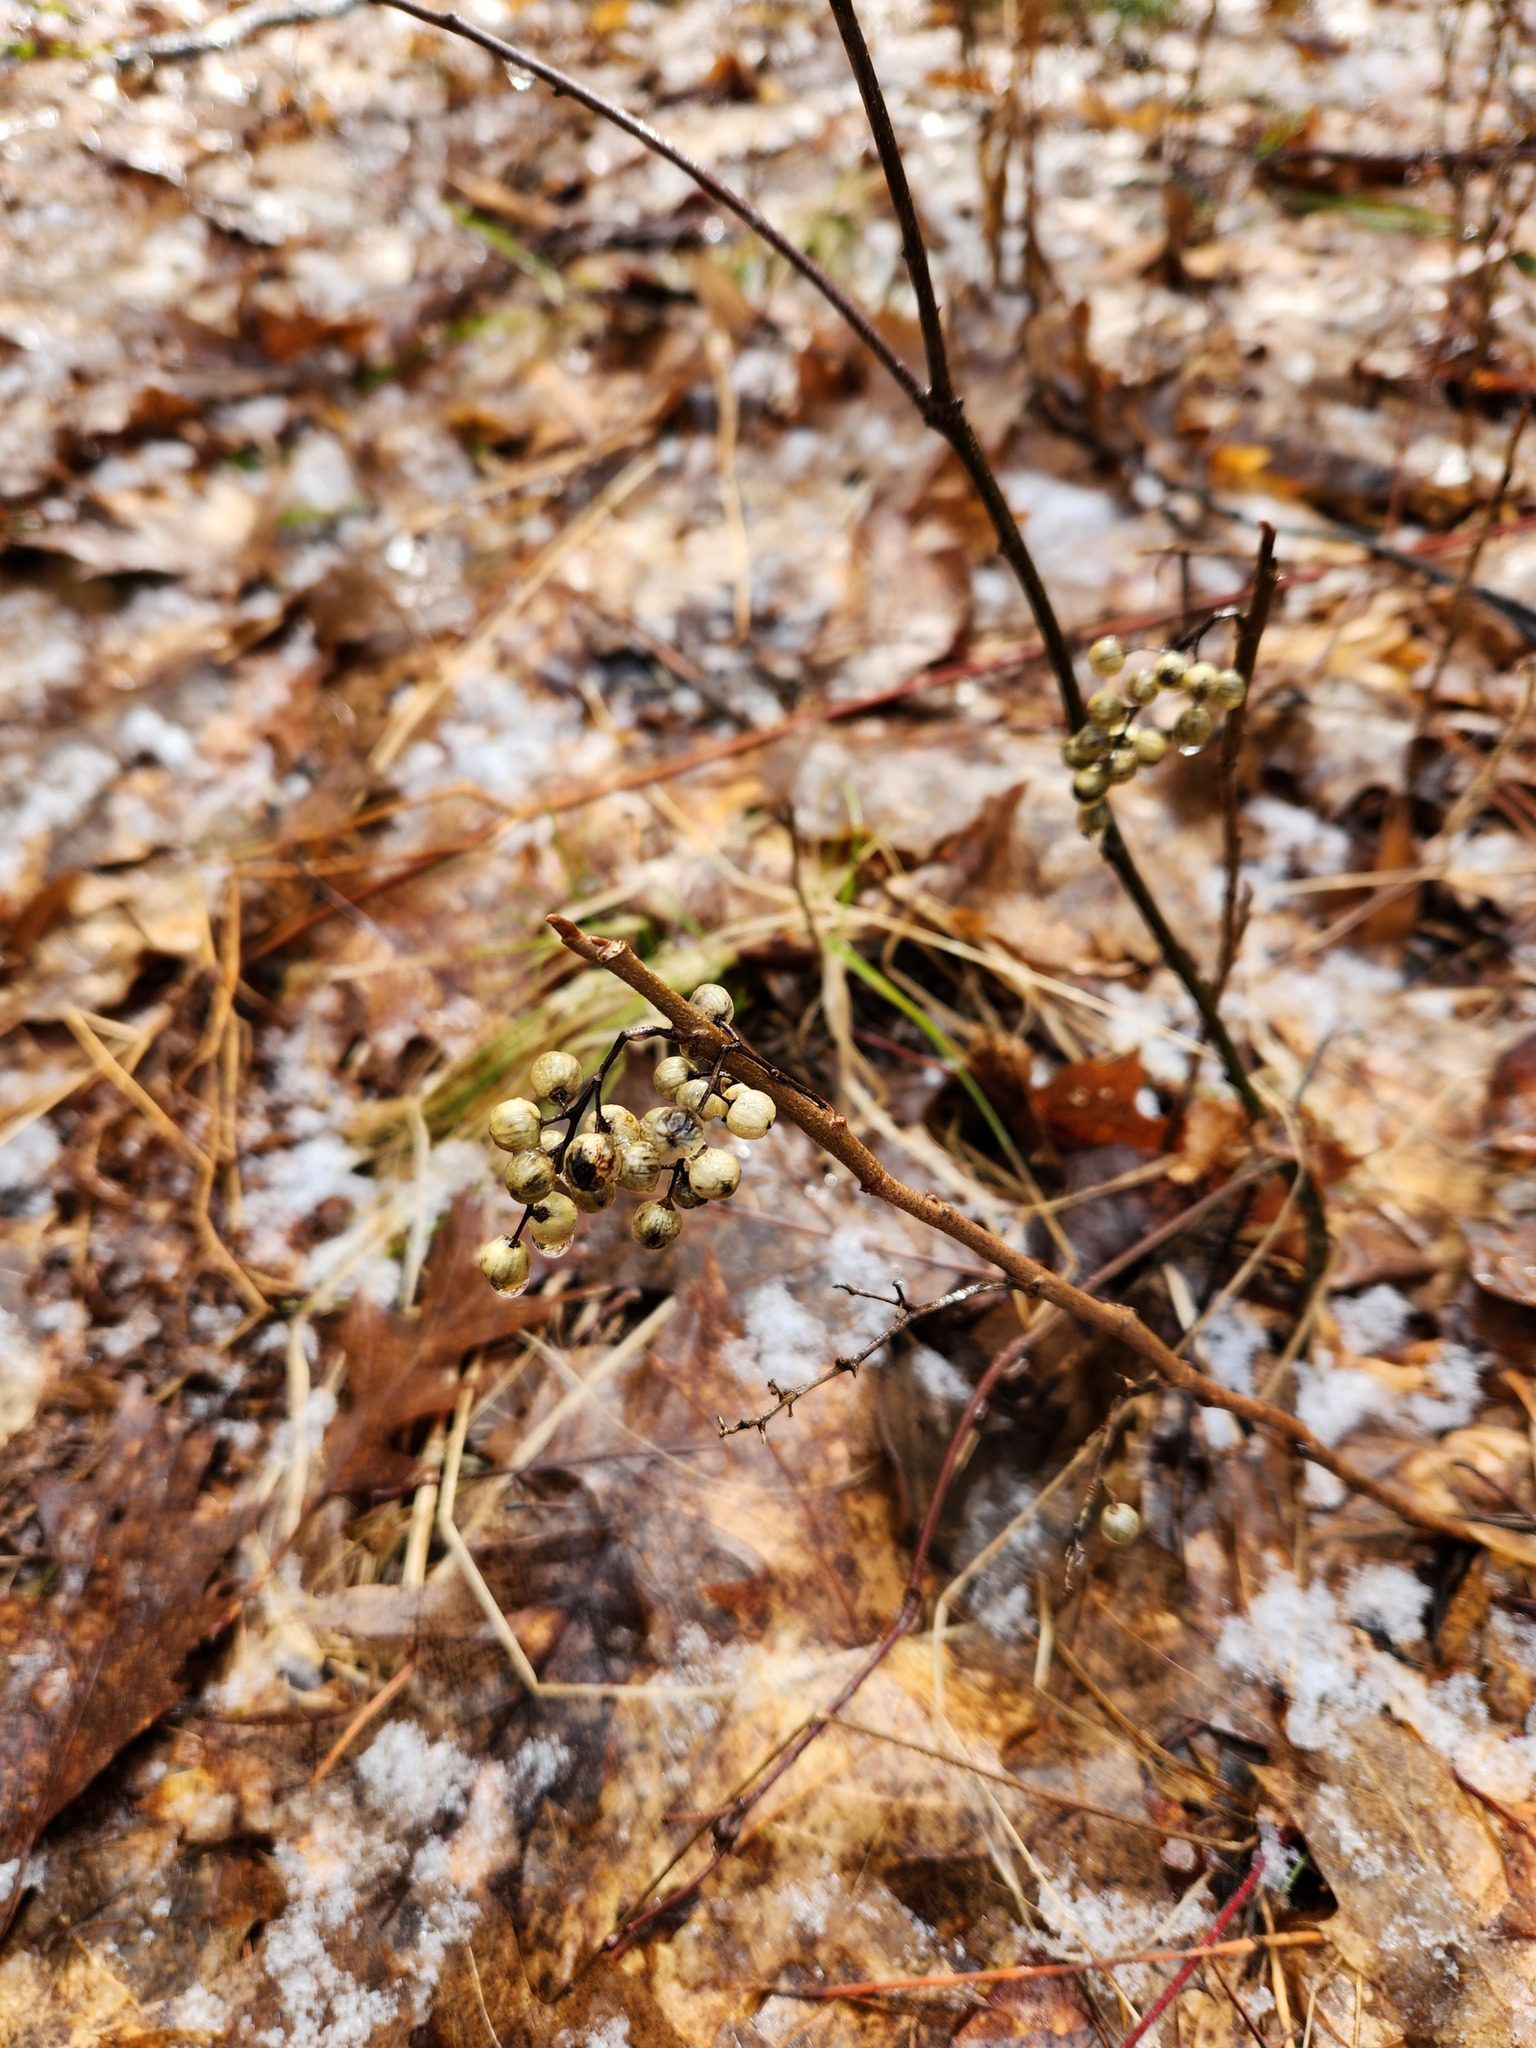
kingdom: Plantae
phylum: Tracheophyta
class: Magnoliopsida
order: Sapindales
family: Anacardiaceae
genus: Toxicodendron
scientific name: Toxicodendron rydbergii
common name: Rydberg's poison-ivy
